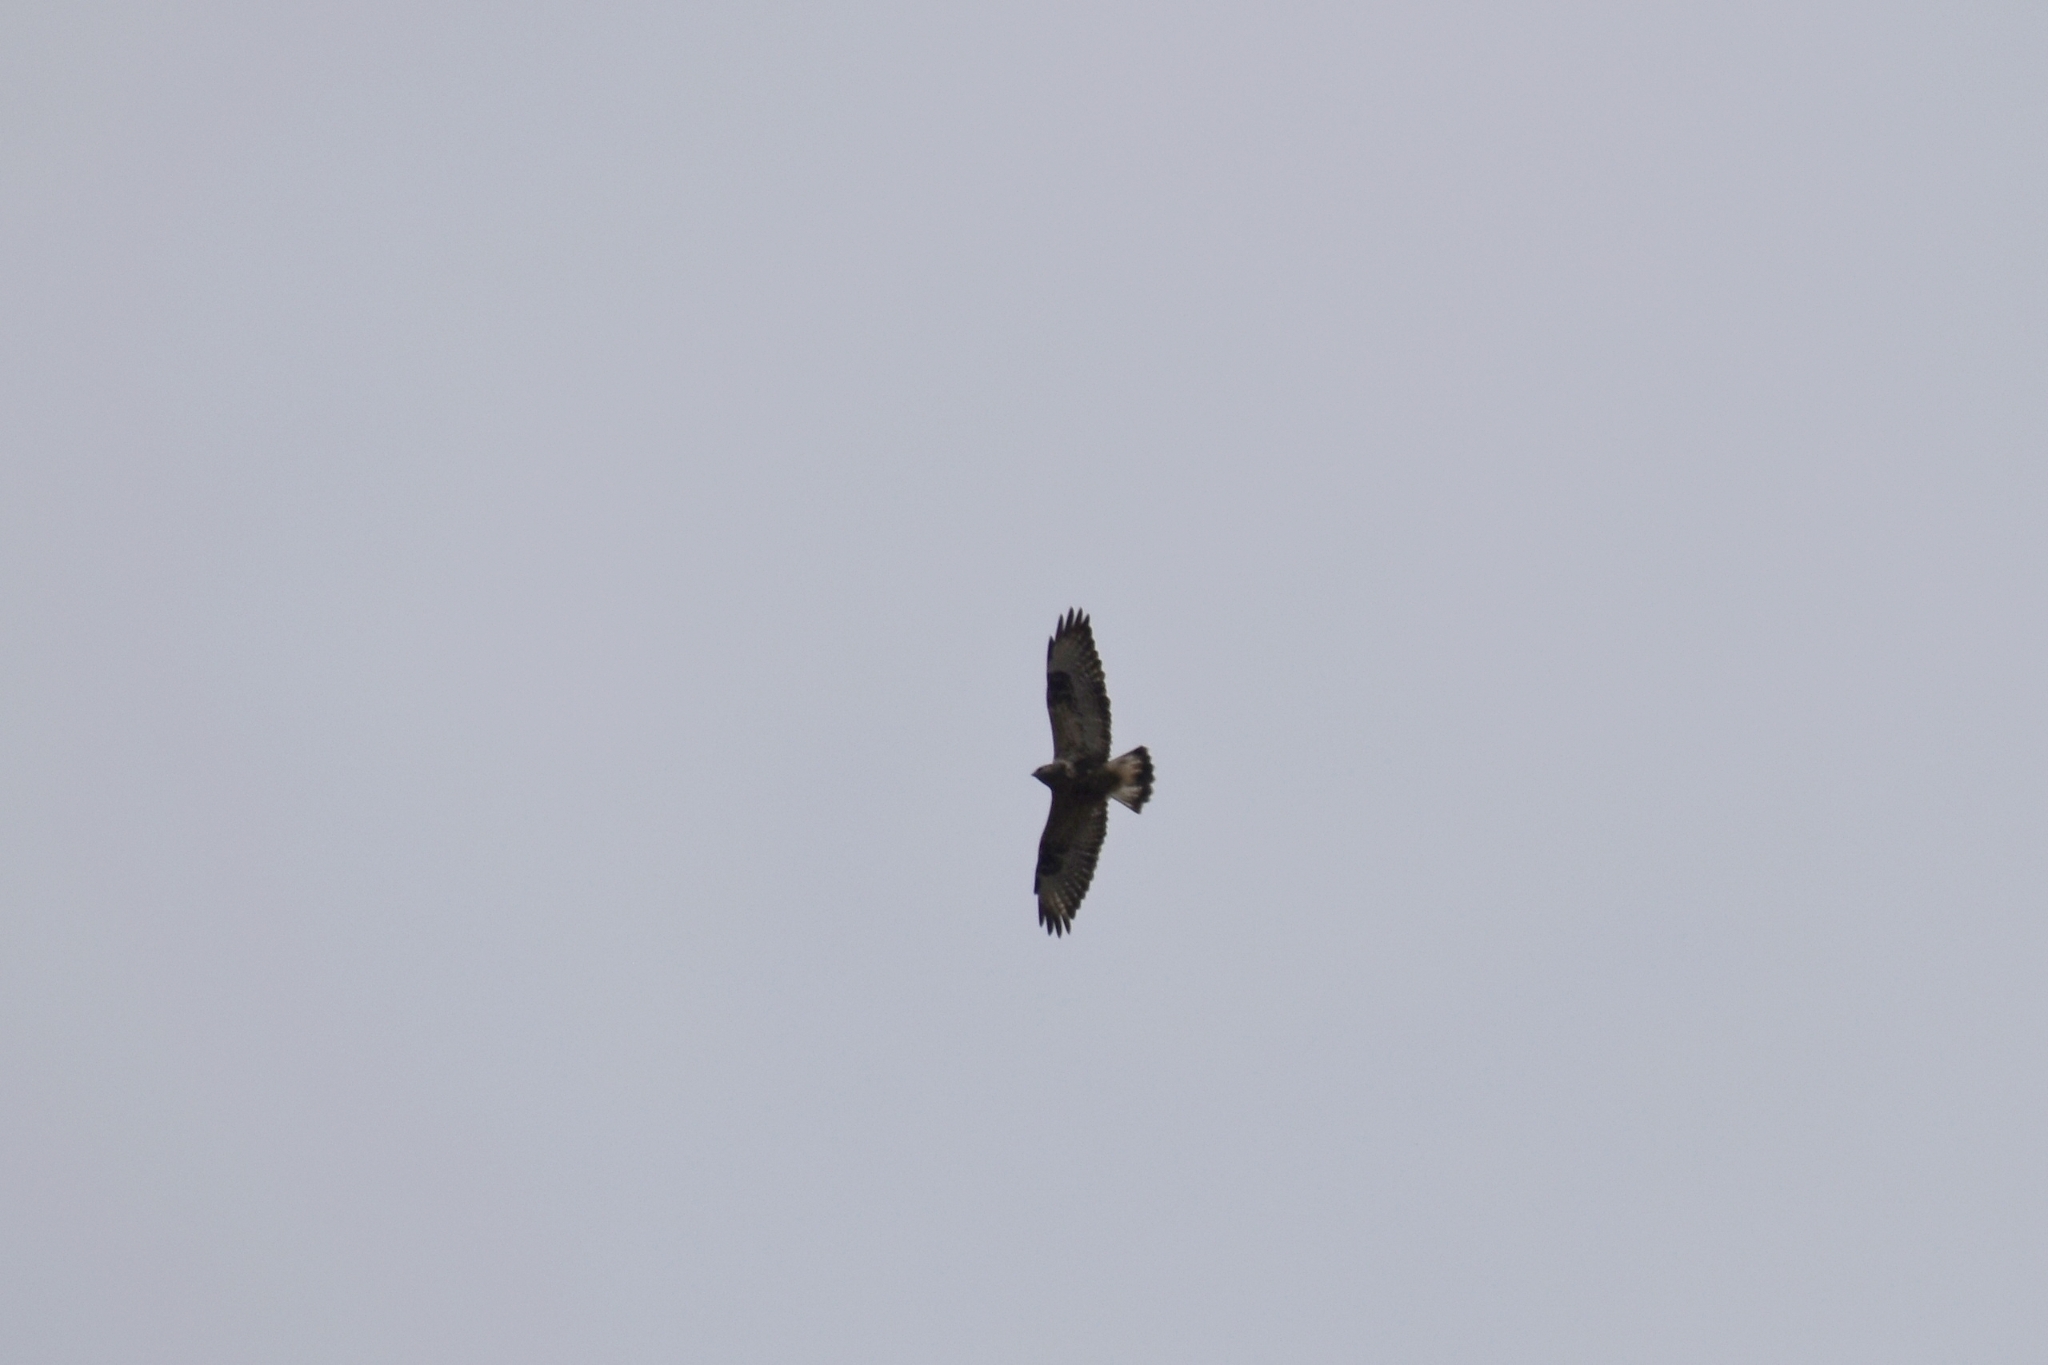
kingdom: Animalia
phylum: Chordata
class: Aves
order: Accipitriformes
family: Accipitridae
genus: Buteo
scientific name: Buteo lagopus
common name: Rough-legged buzzard
